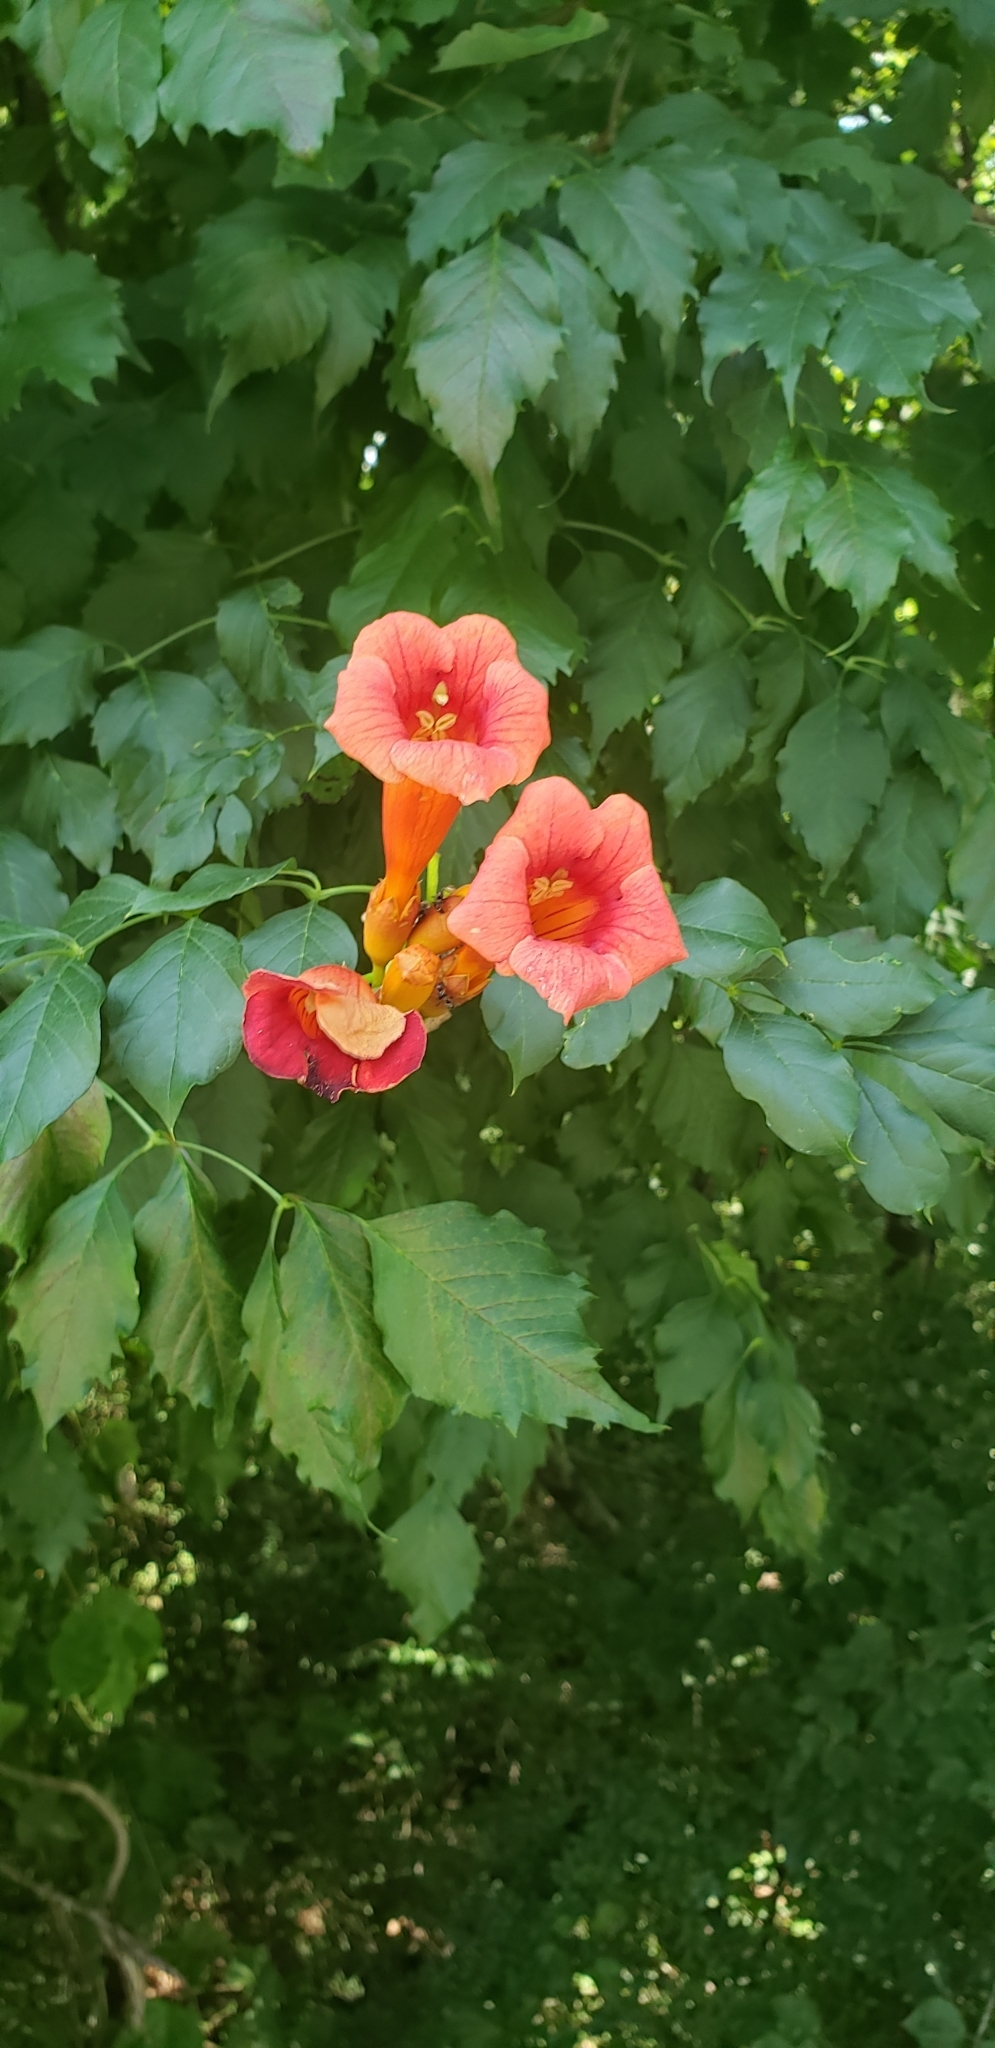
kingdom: Plantae
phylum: Tracheophyta
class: Magnoliopsida
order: Lamiales
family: Bignoniaceae
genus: Campsis
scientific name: Campsis radicans
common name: Trumpet-creeper
